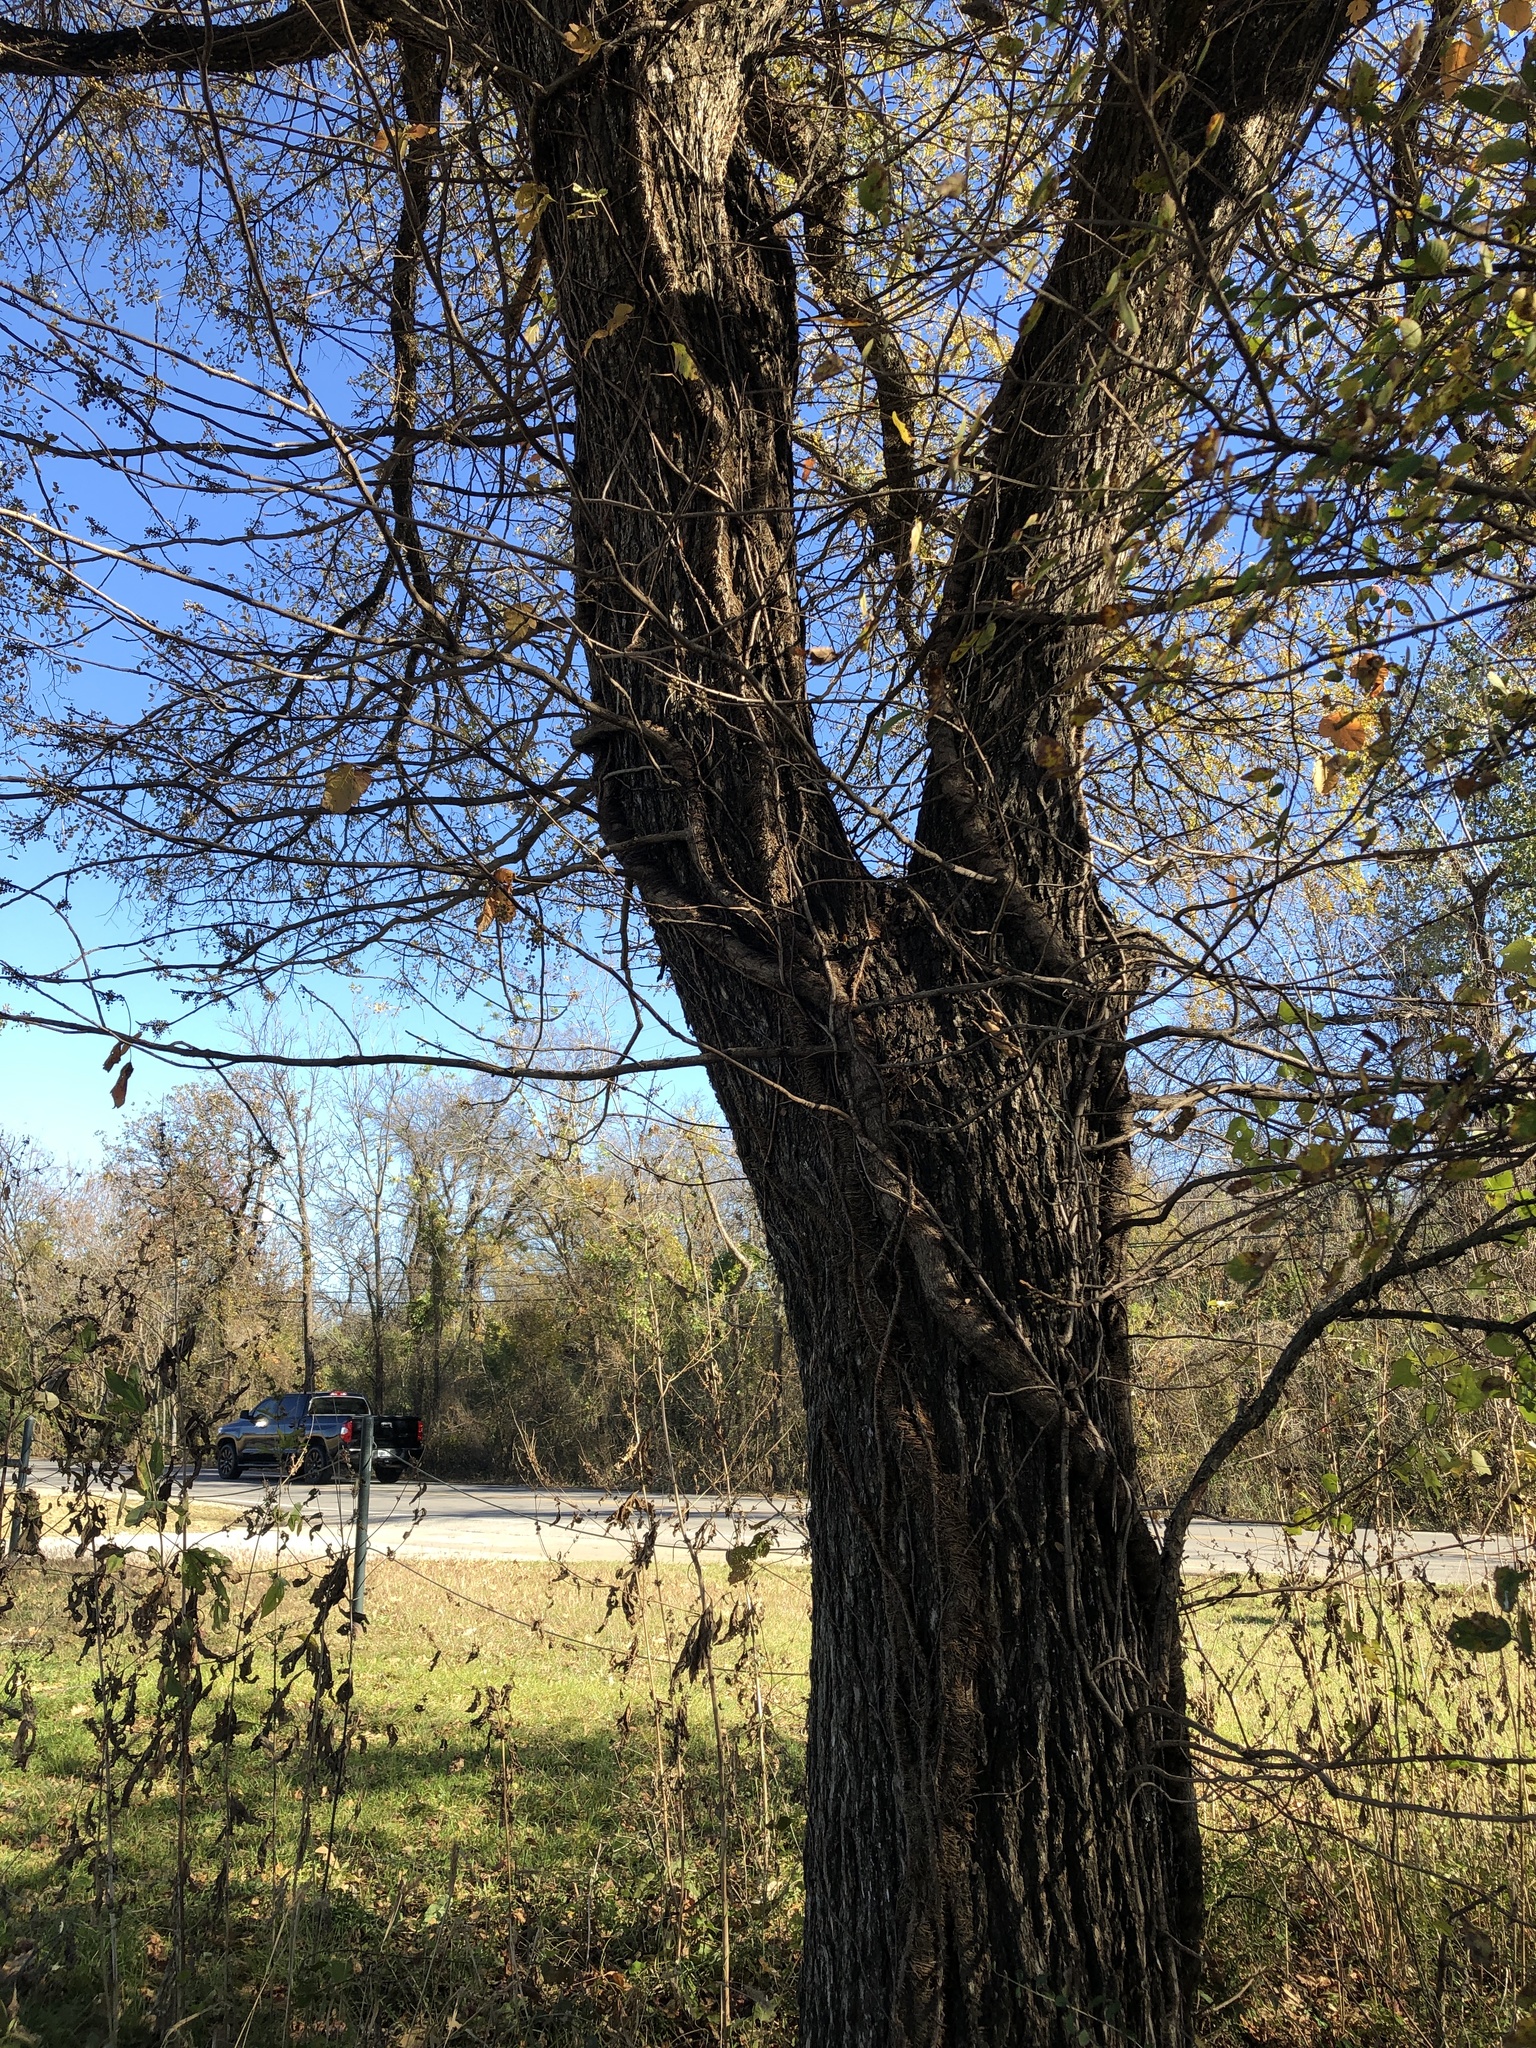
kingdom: Plantae
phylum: Tracheophyta
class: Magnoliopsida
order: Sapindales
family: Anacardiaceae
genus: Toxicodendron
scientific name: Toxicodendron radicans
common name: Poison ivy
